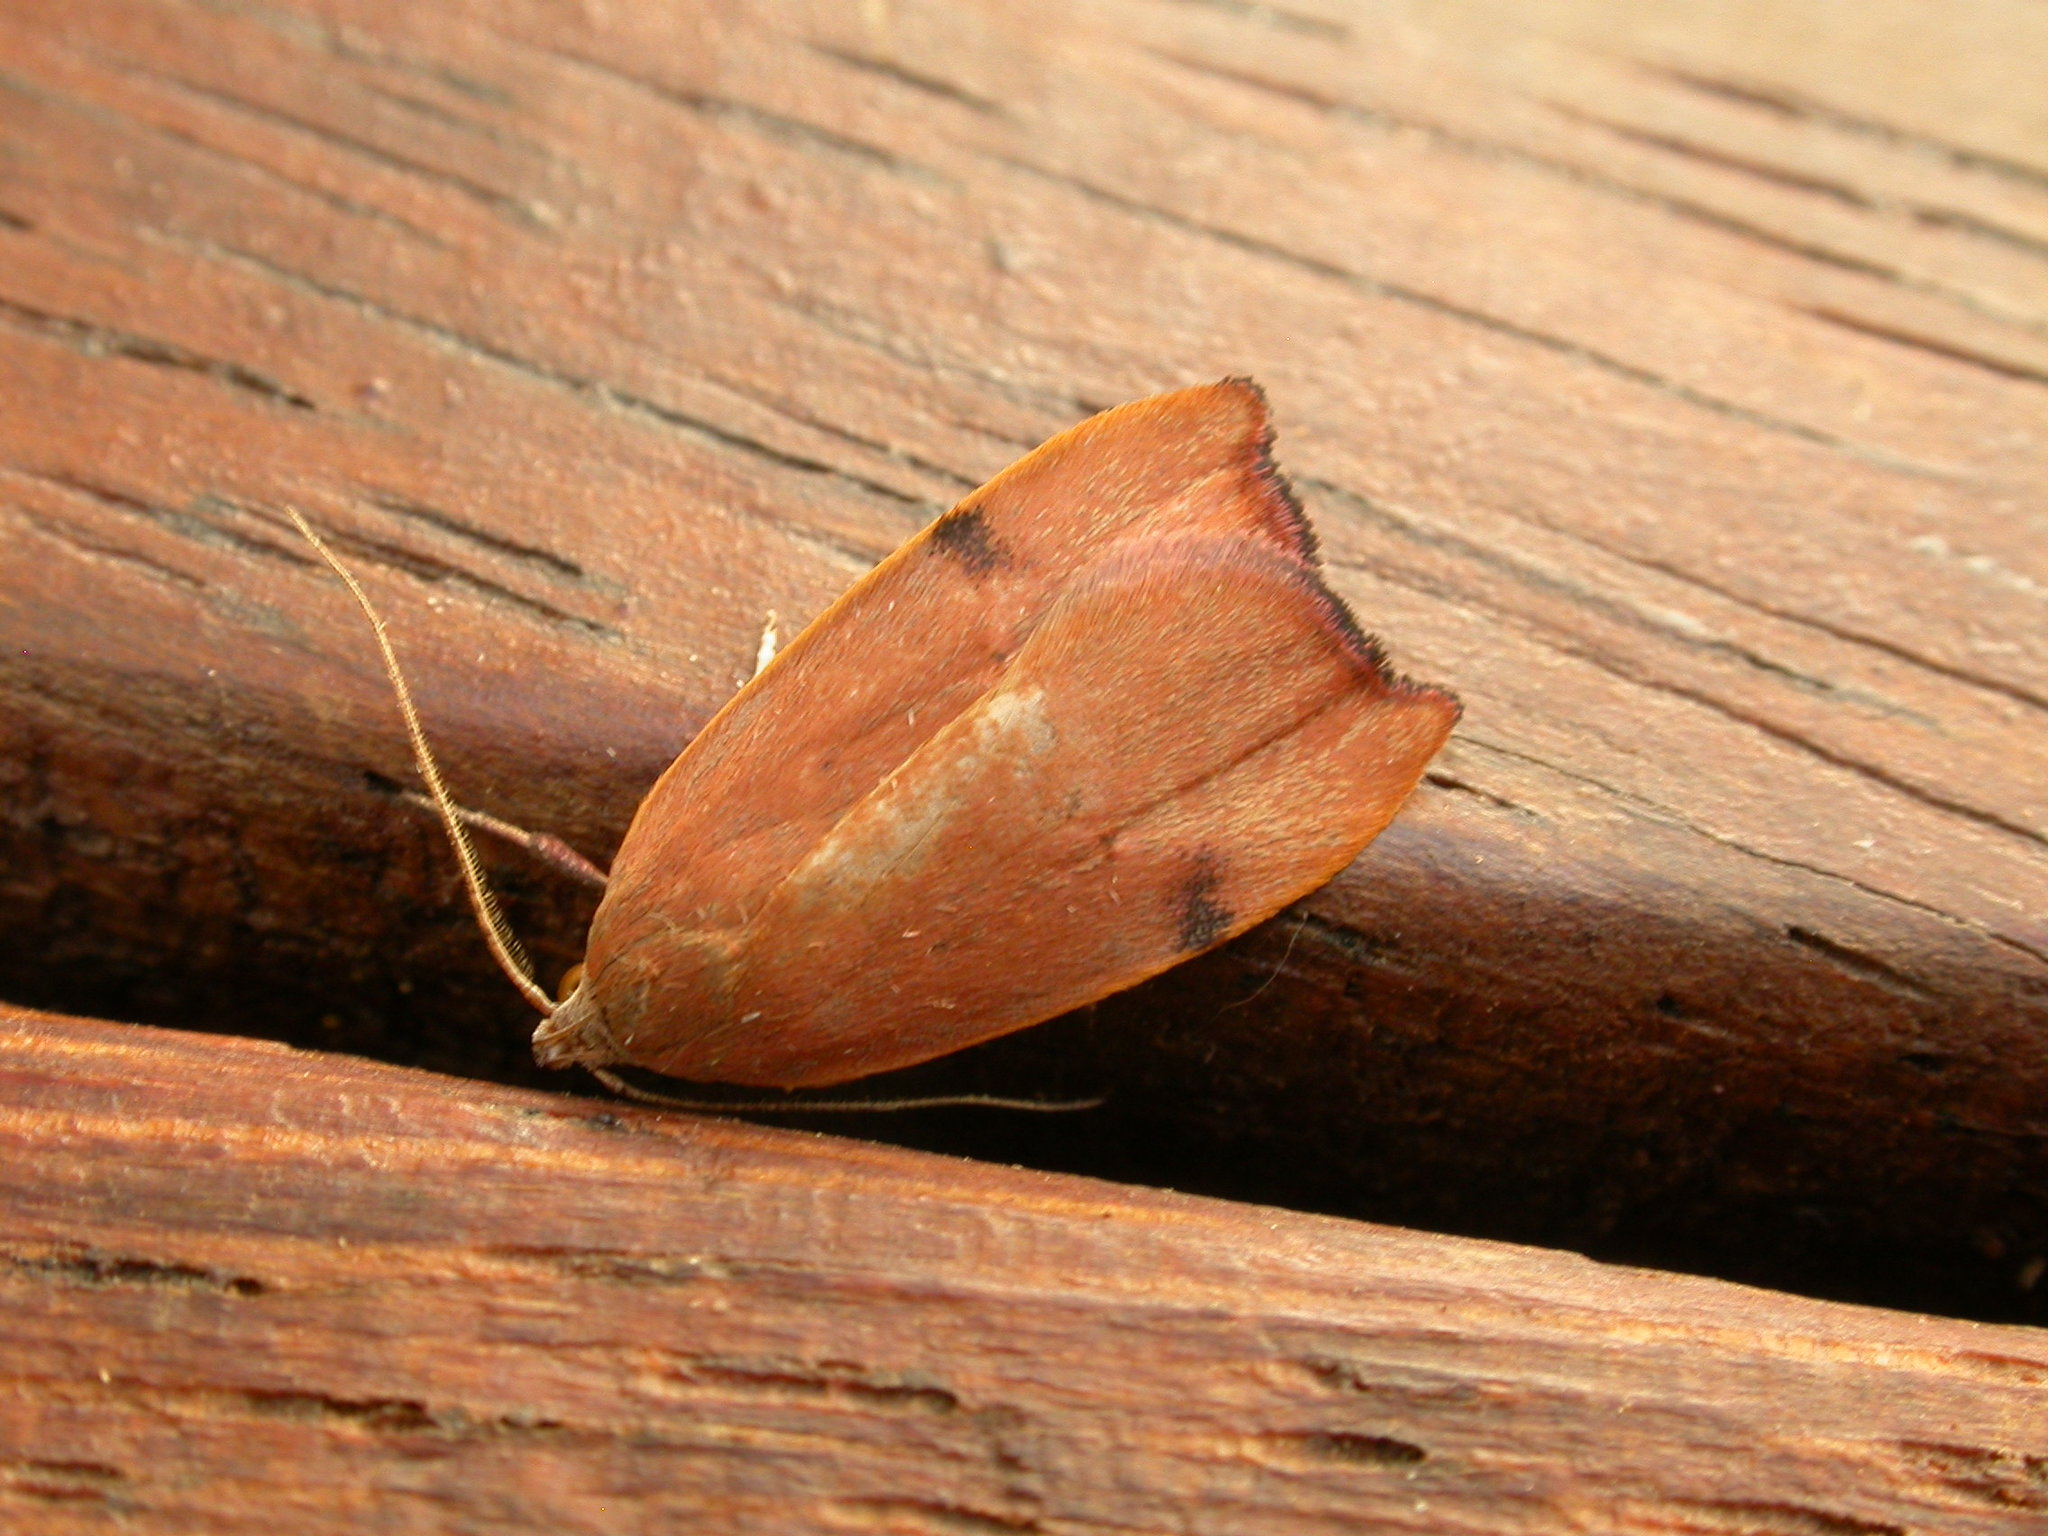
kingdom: Animalia
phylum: Arthropoda
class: Insecta
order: Lepidoptera
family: Oecophoridae
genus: Tortricopsis
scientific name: Tortricopsis uncinella
